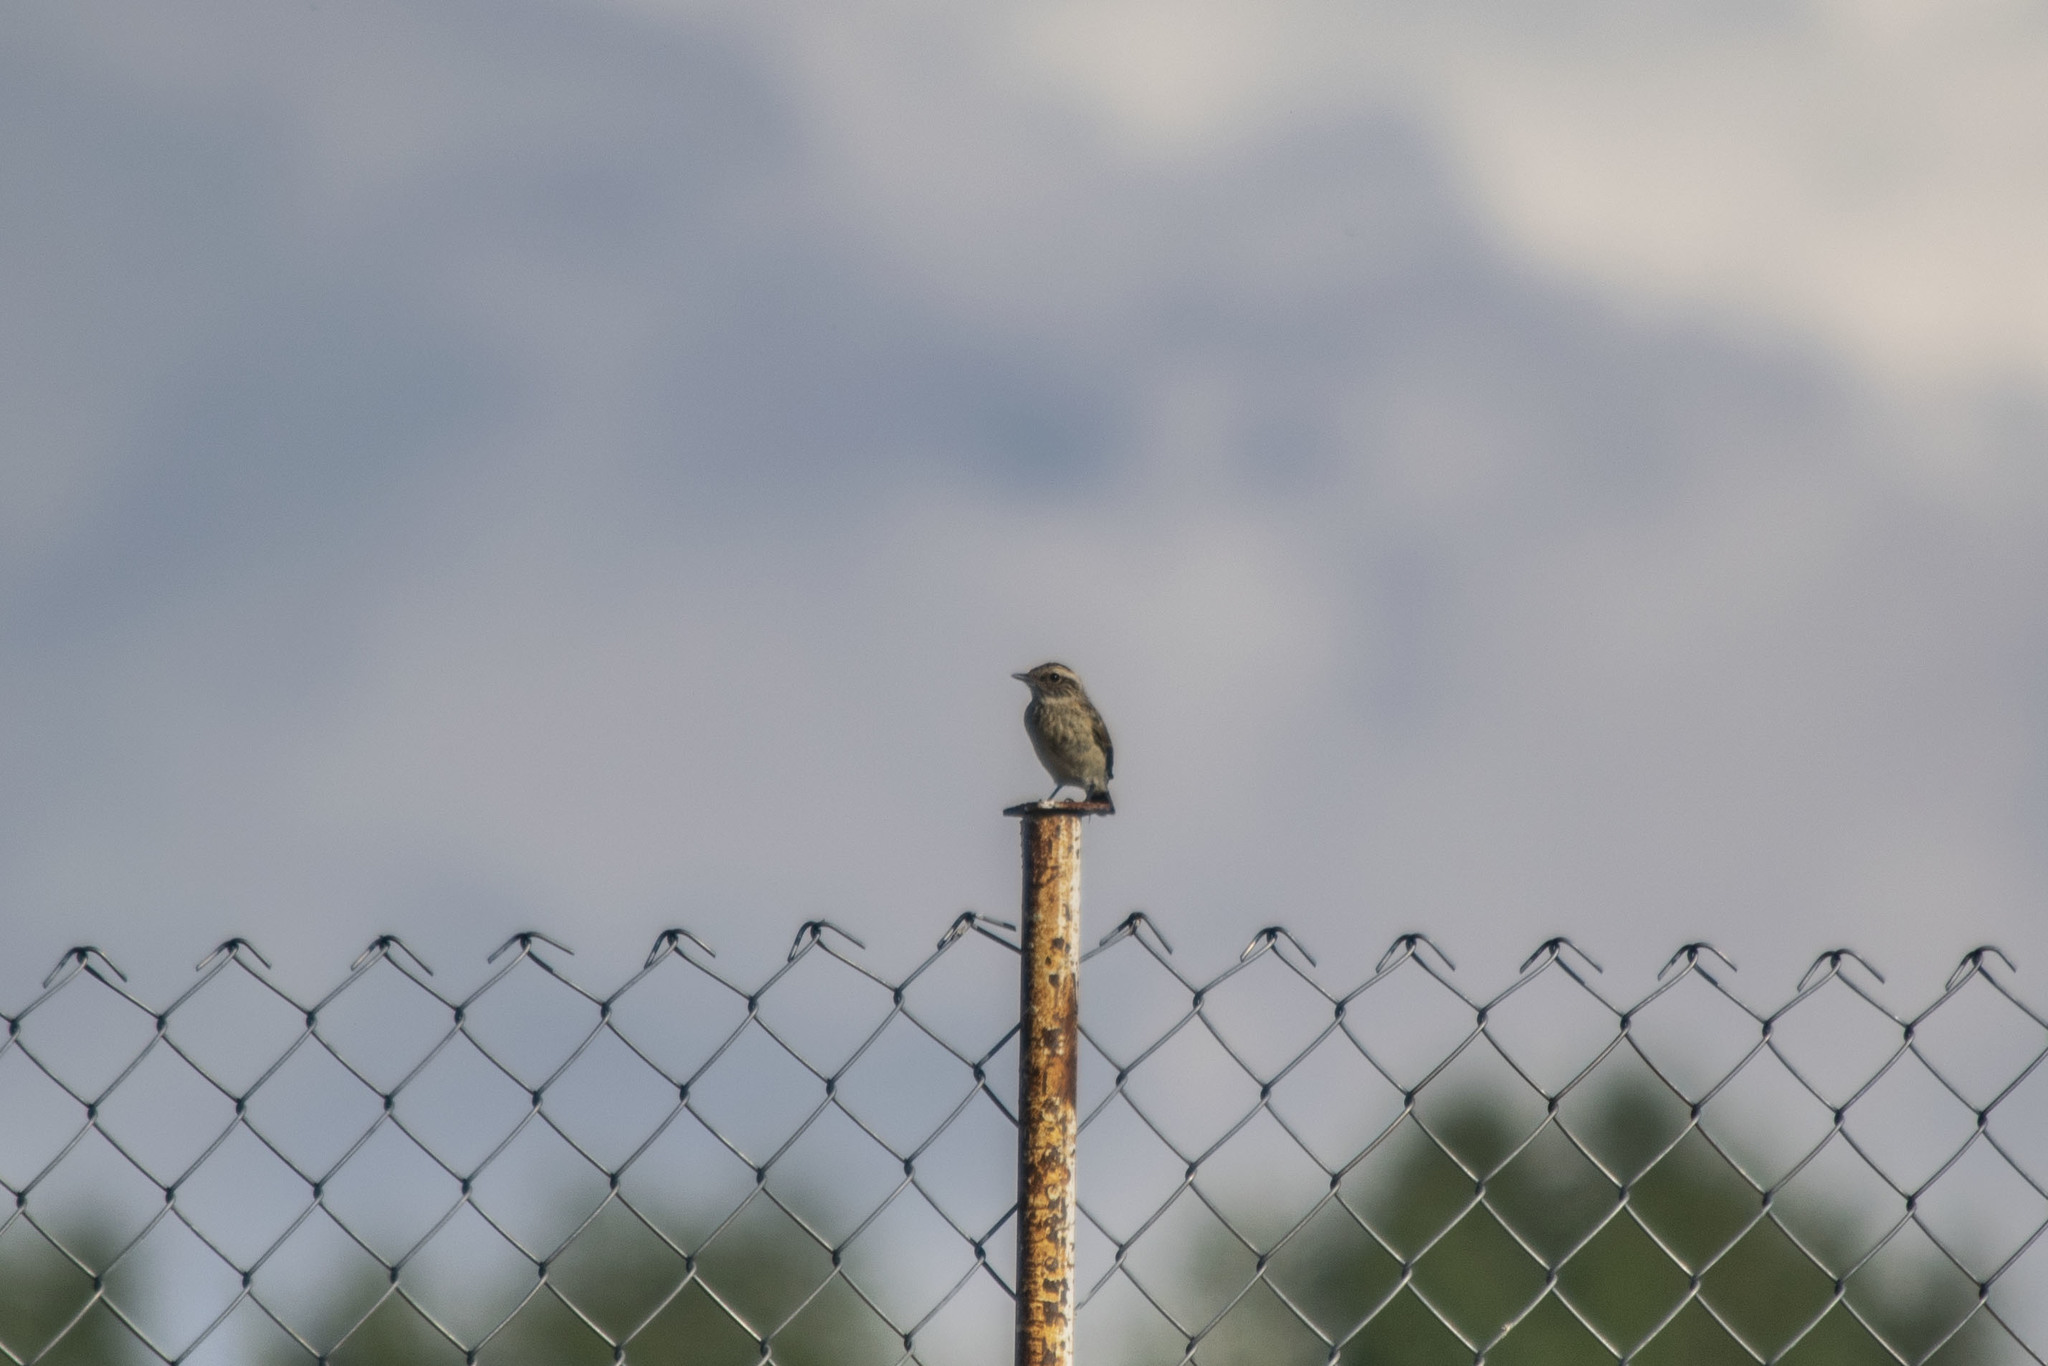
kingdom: Animalia
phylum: Chordata
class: Aves
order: Passeriformes
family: Muscicapidae
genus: Saxicola
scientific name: Saxicola rubetra
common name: Whinchat
